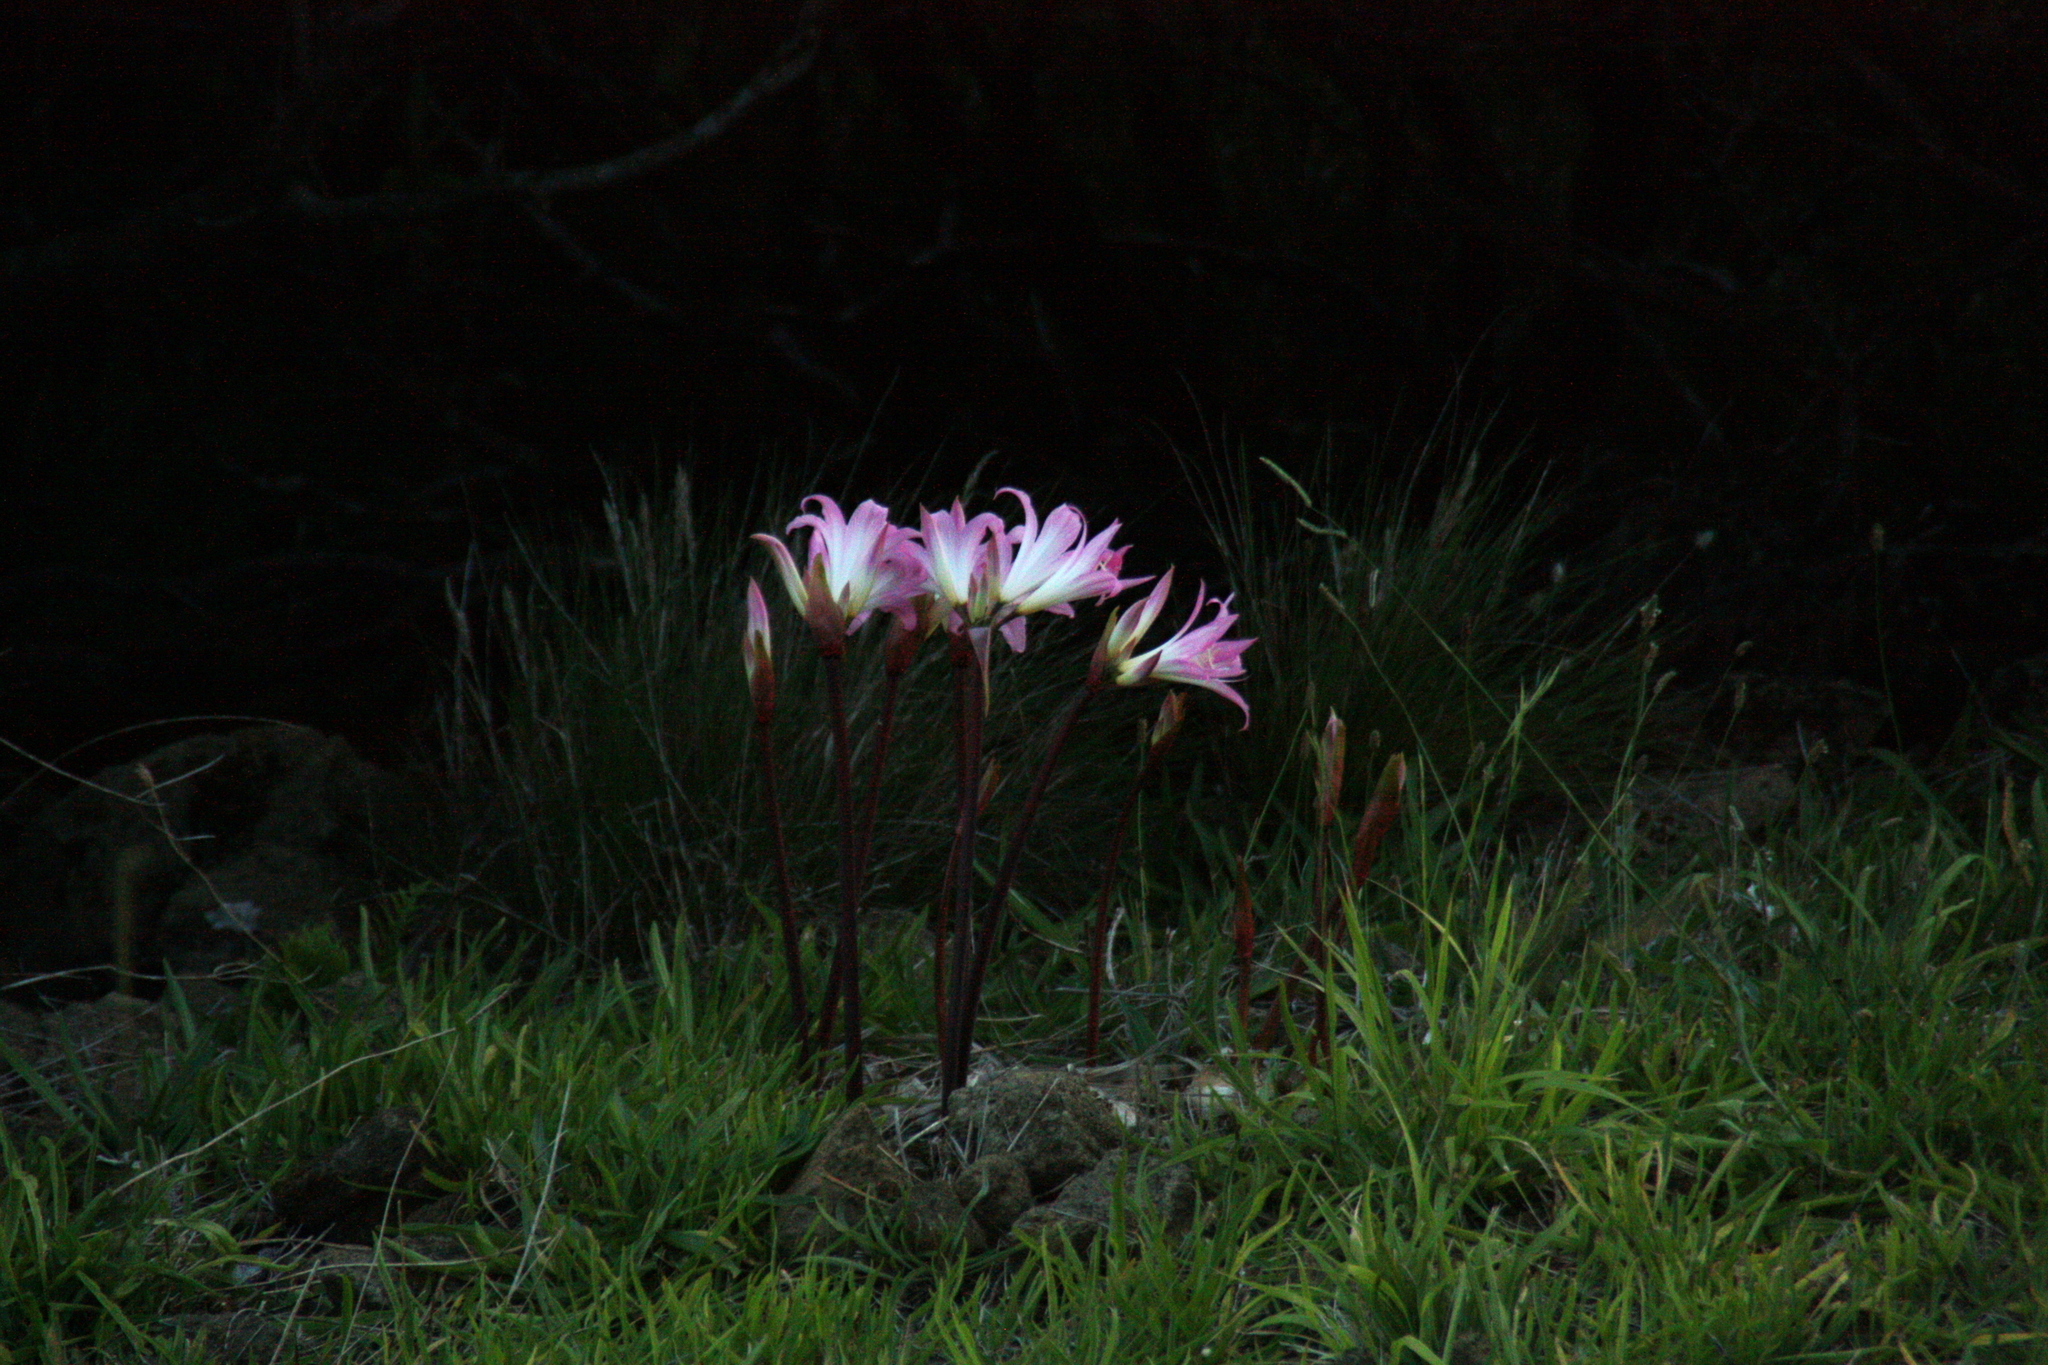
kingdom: Plantae
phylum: Tracheophyta
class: Liliopsida
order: Asparagales
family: Amaryllidaceae
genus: Amaryllis
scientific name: Amaryllis belladonna
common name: Jersey lily
